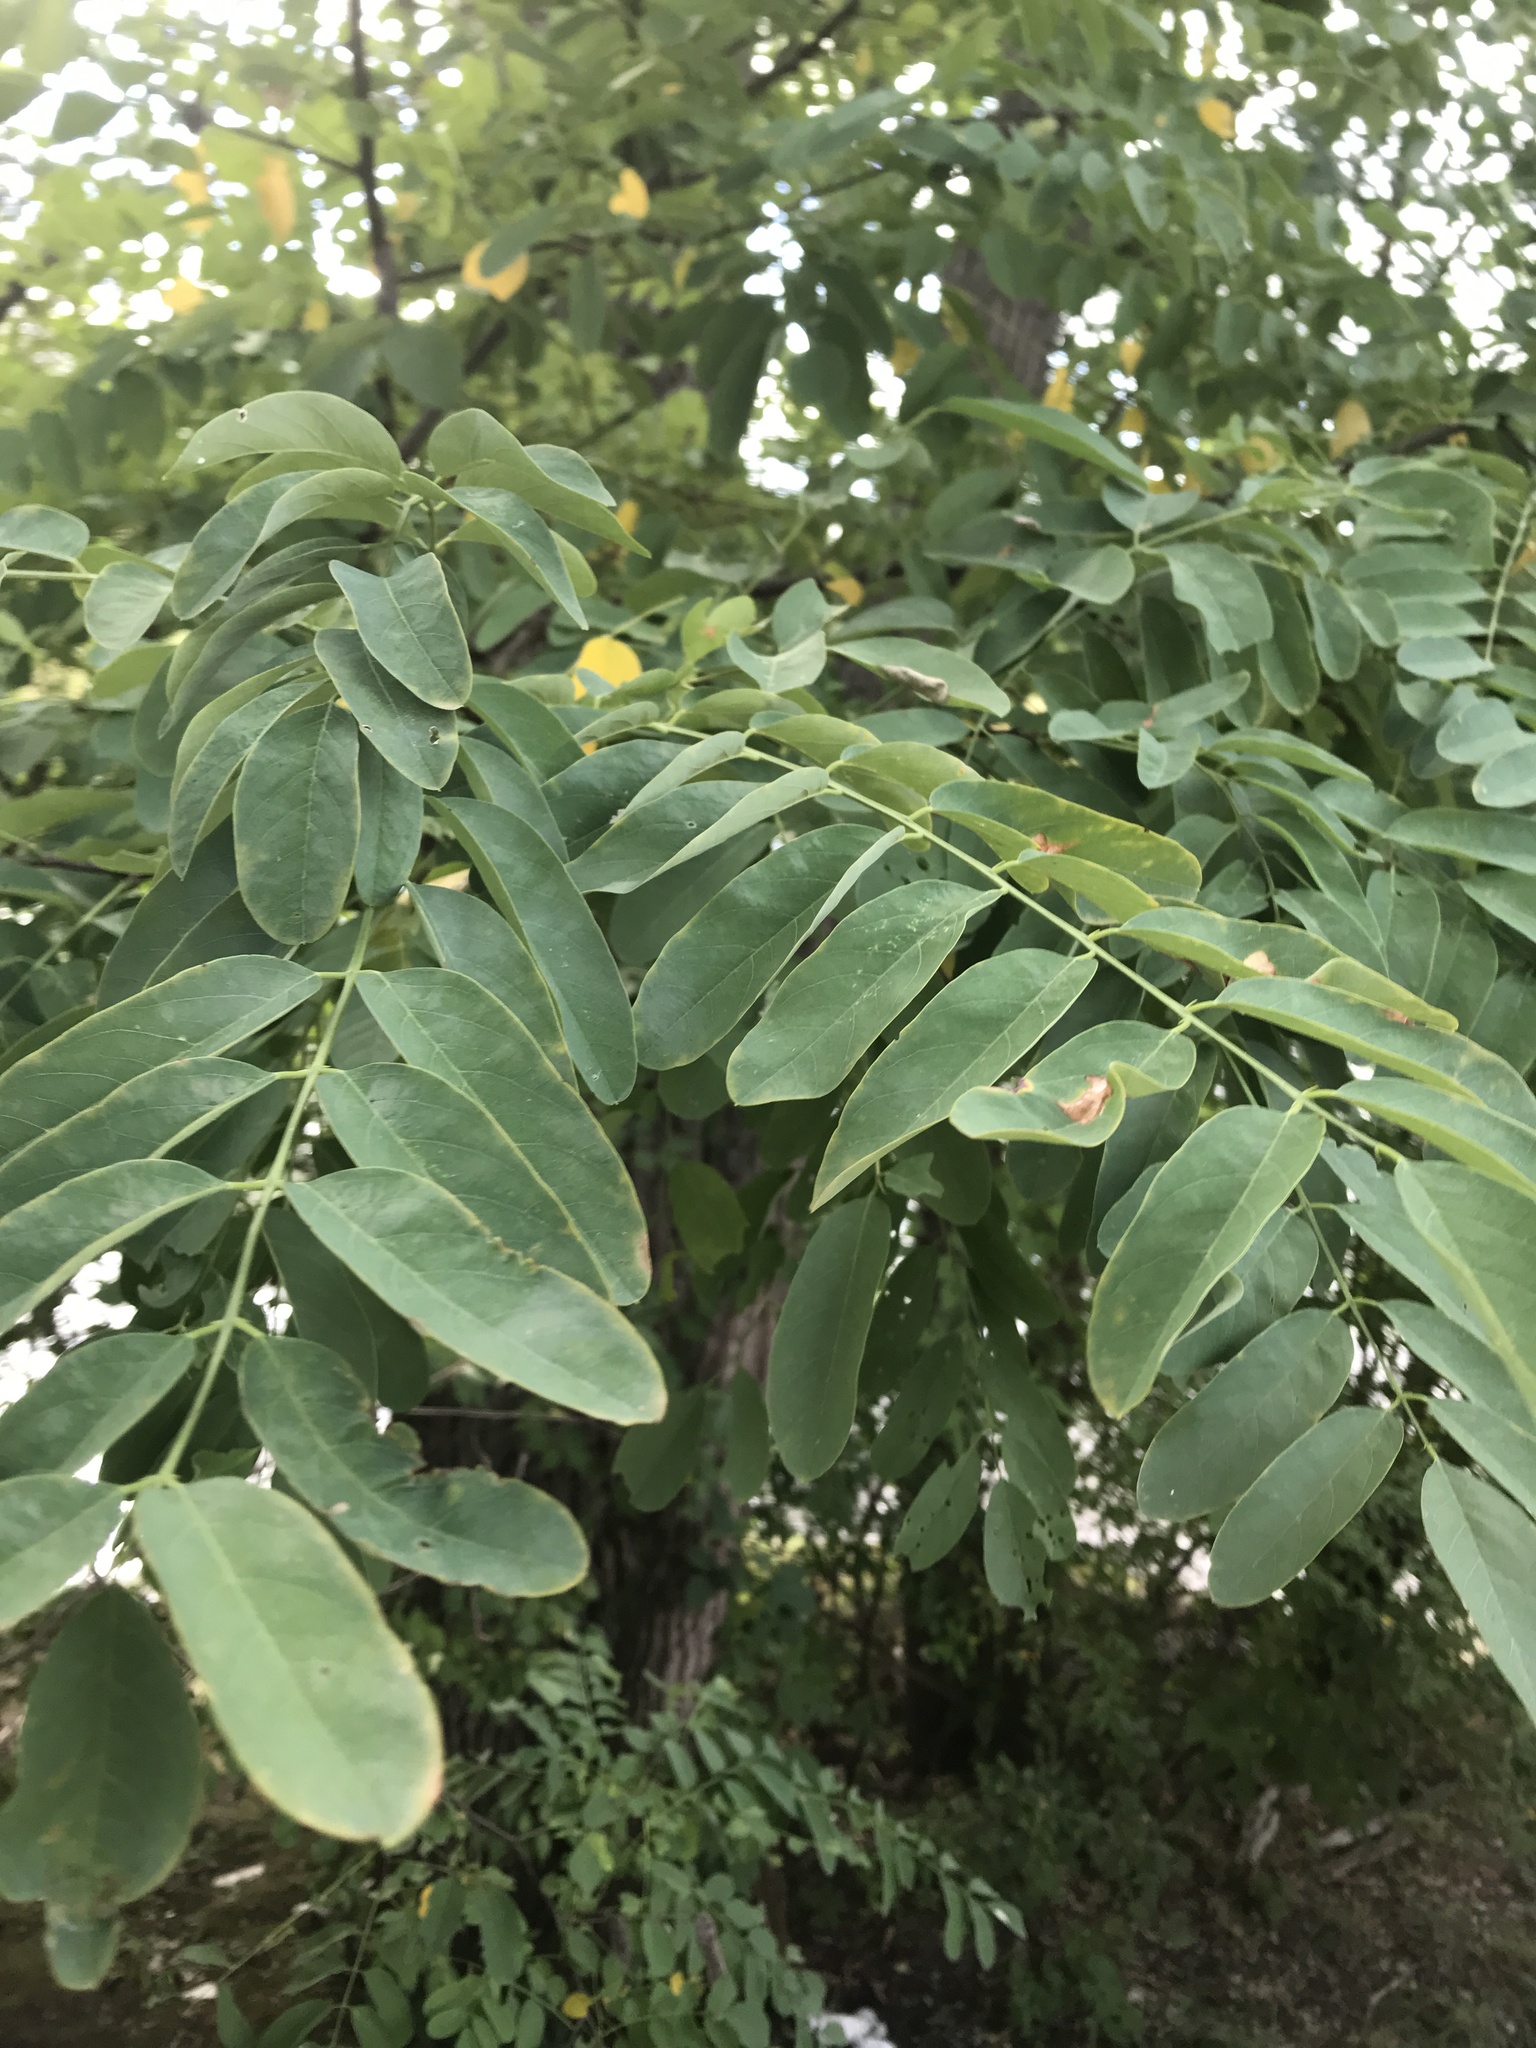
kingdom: Plantae
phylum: Tracheophyta
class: Magnoliopsida
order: Fabales
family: Fabaceae
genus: Robinia
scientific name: Robinia pseudoacacia
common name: Black locust
